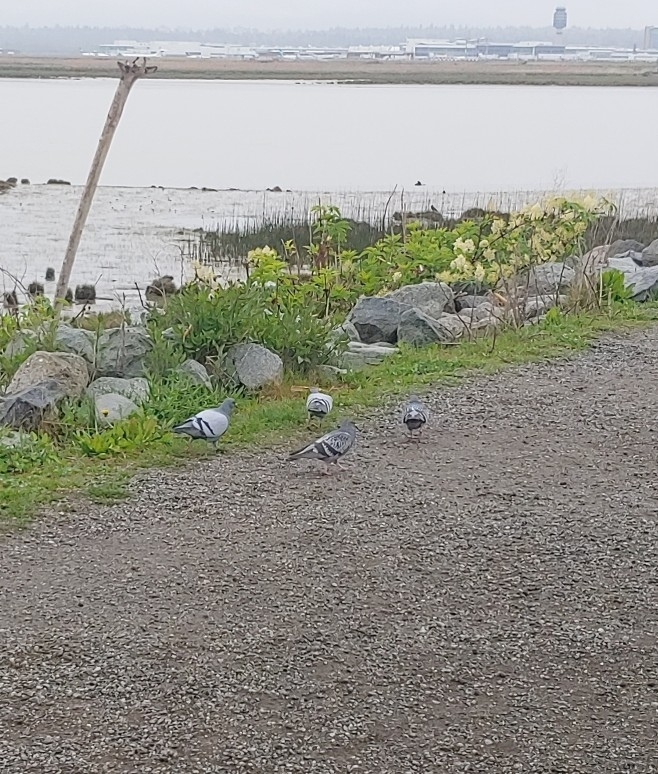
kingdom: Animalia
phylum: Chordata
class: Aves
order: Columbiformes
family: Columbidae
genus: Columba
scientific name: Columba livia
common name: Rock pigeon
